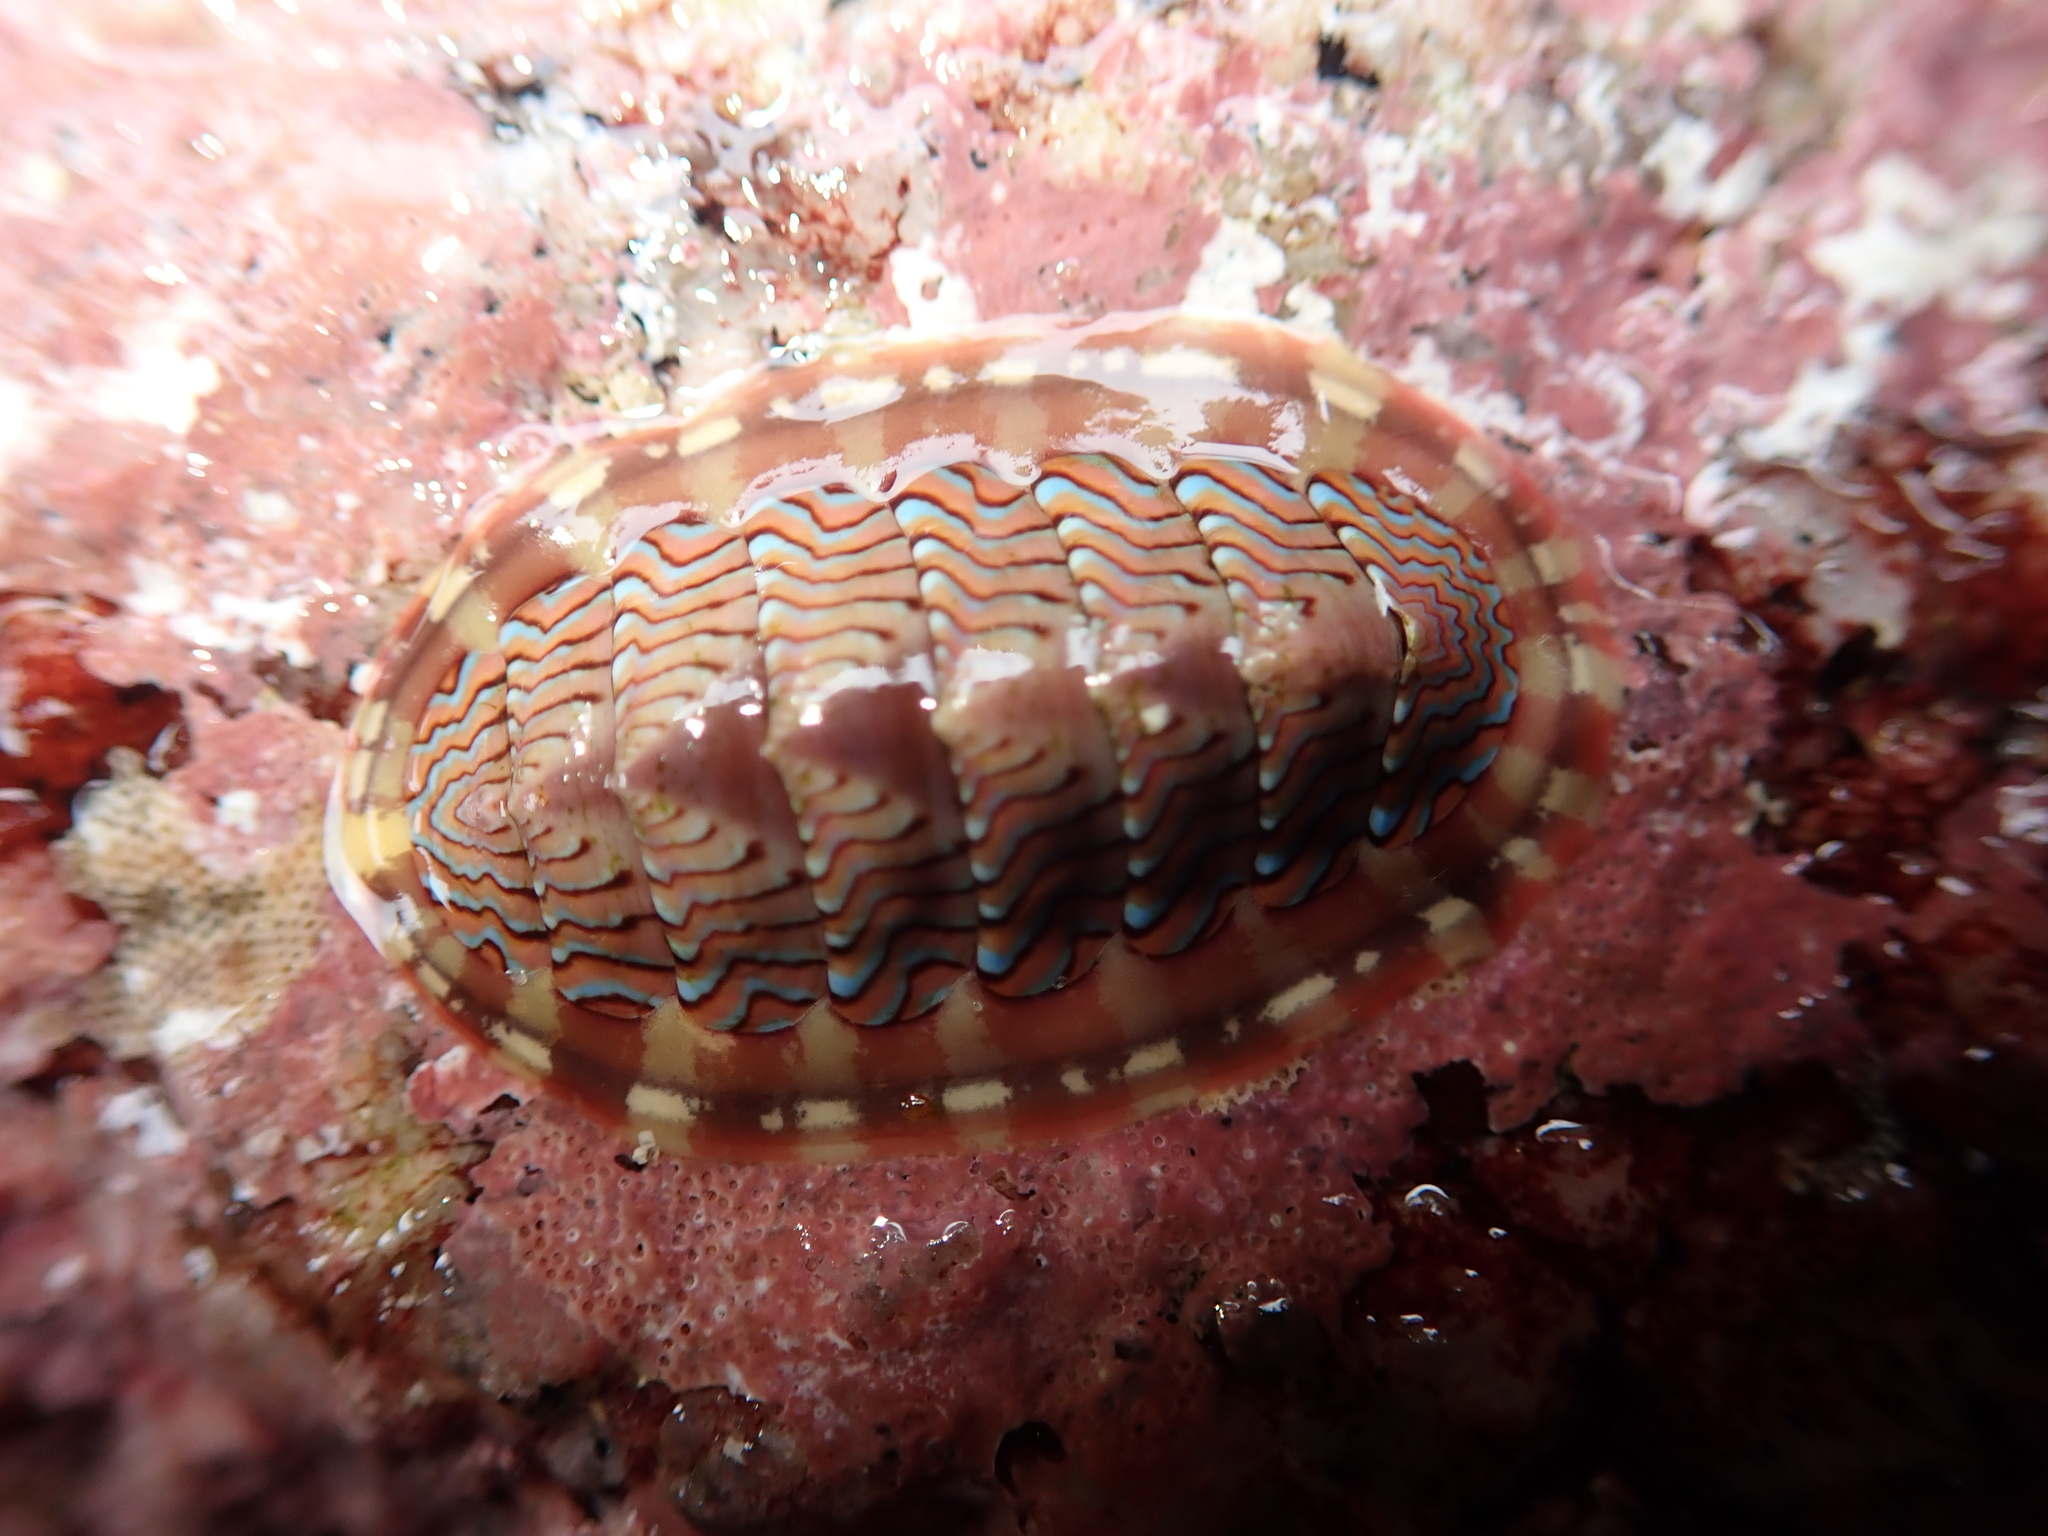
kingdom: Animalia
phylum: Mollusca
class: Polyplacophora
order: Chitonida
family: Tonicellidae
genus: Tonicella
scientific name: Tonicella lokii
